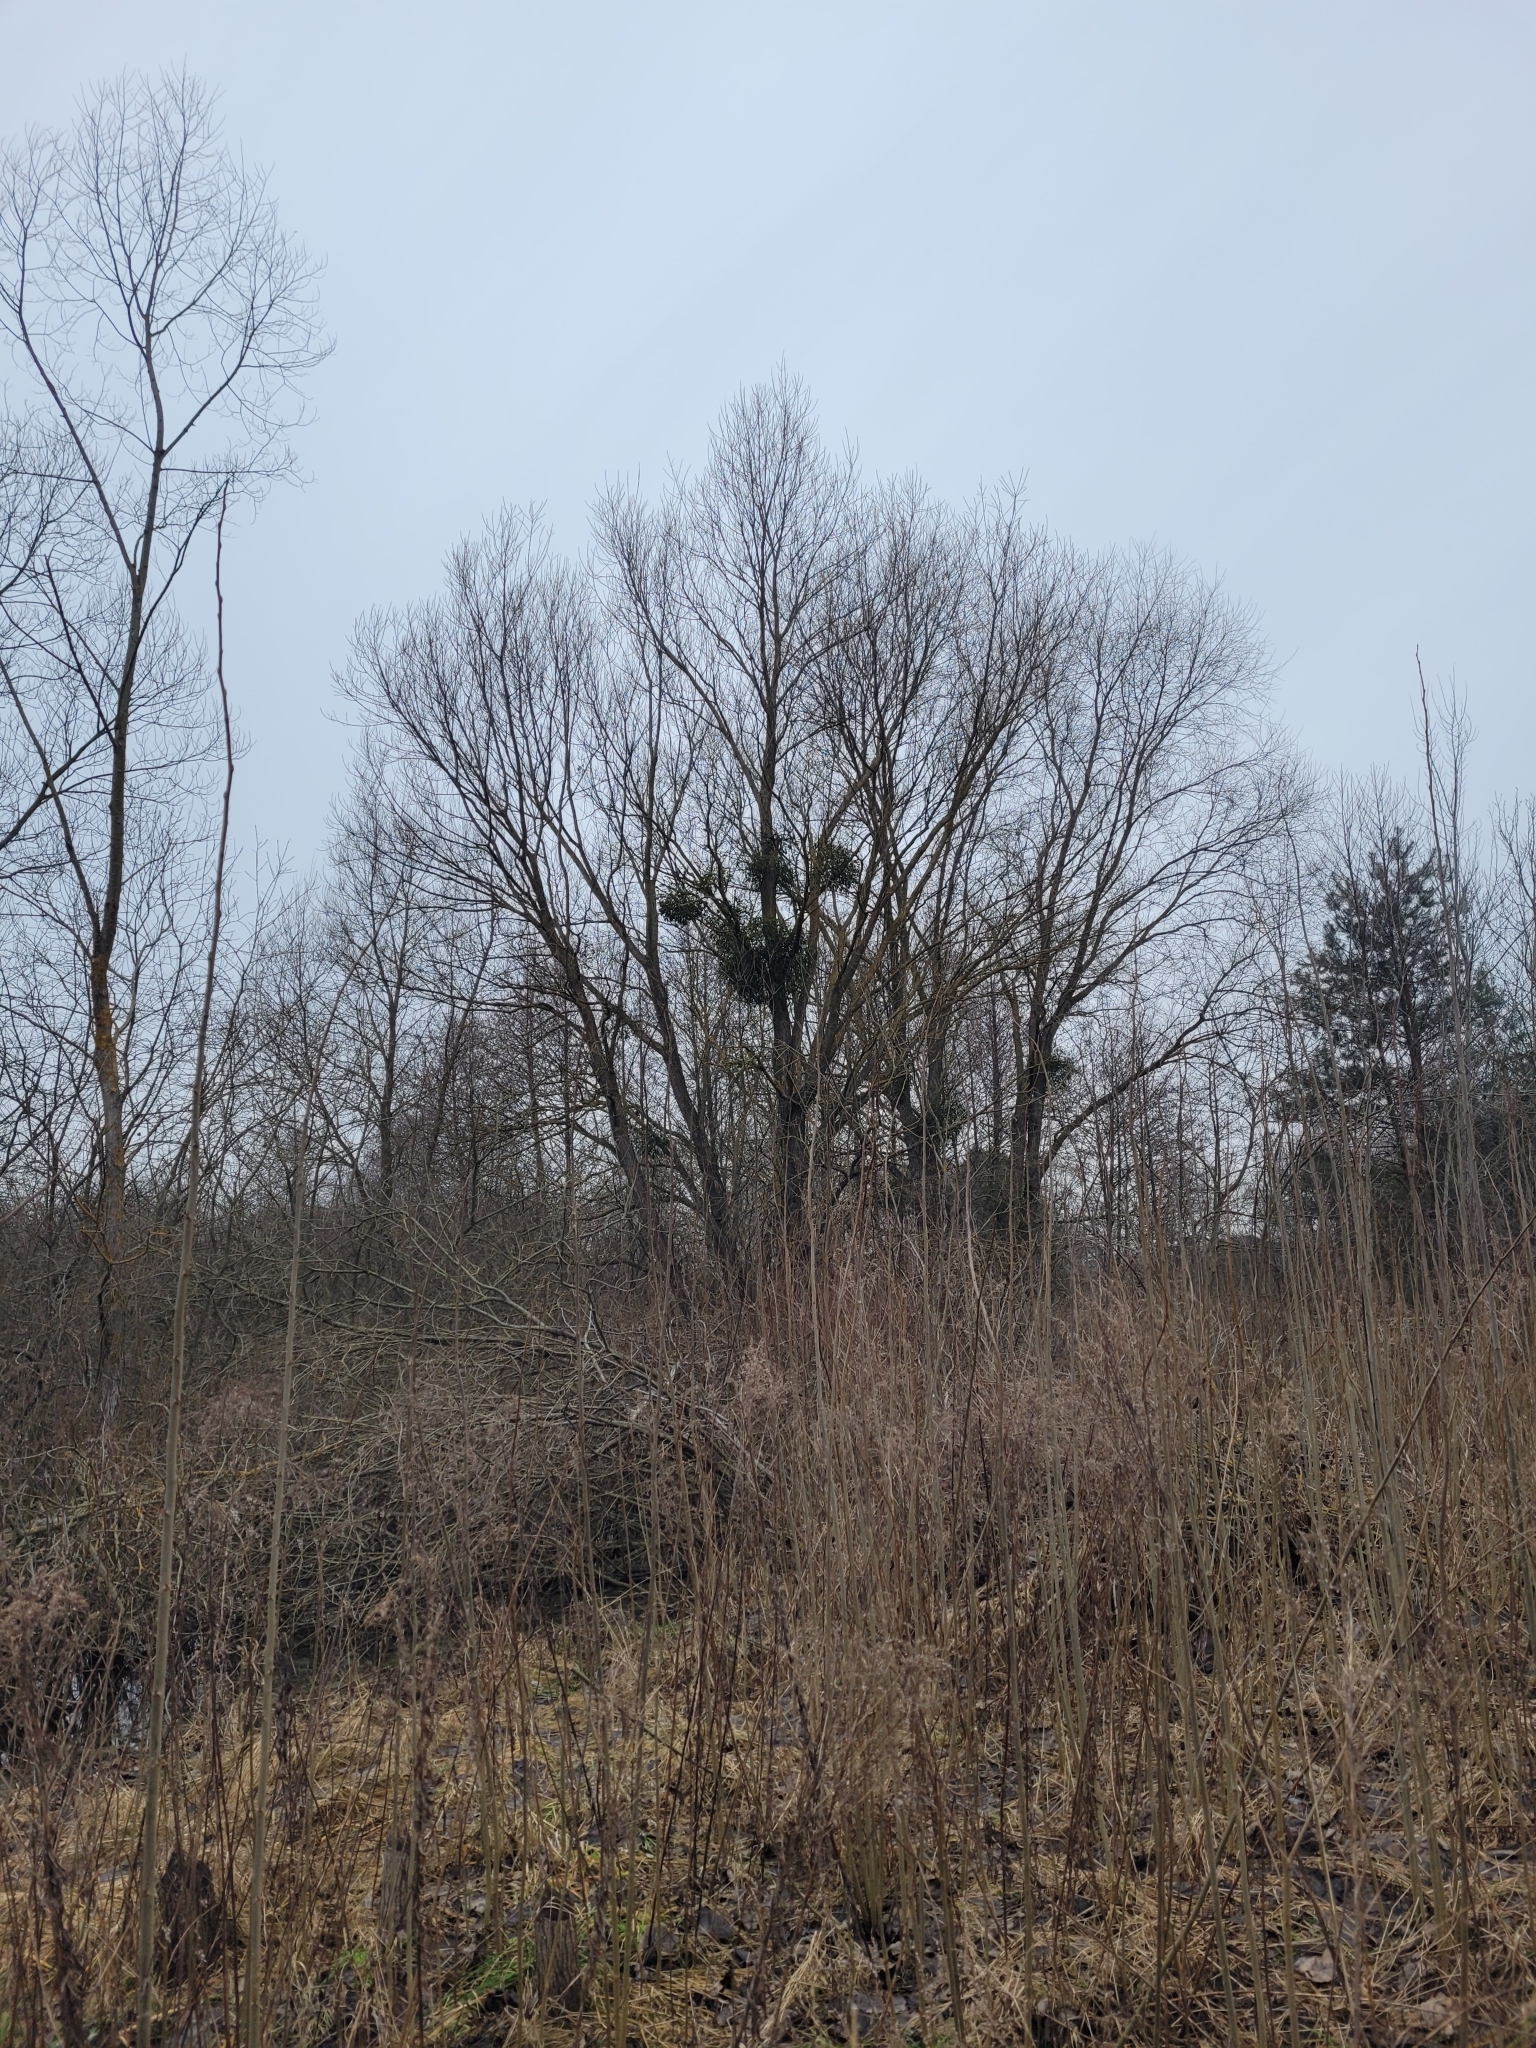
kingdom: Plantae
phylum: Tracheophyta
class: Magnoliopsida
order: Santalales
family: Viscaceae
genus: Viscum
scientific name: Viscum album
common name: Mistletoe
